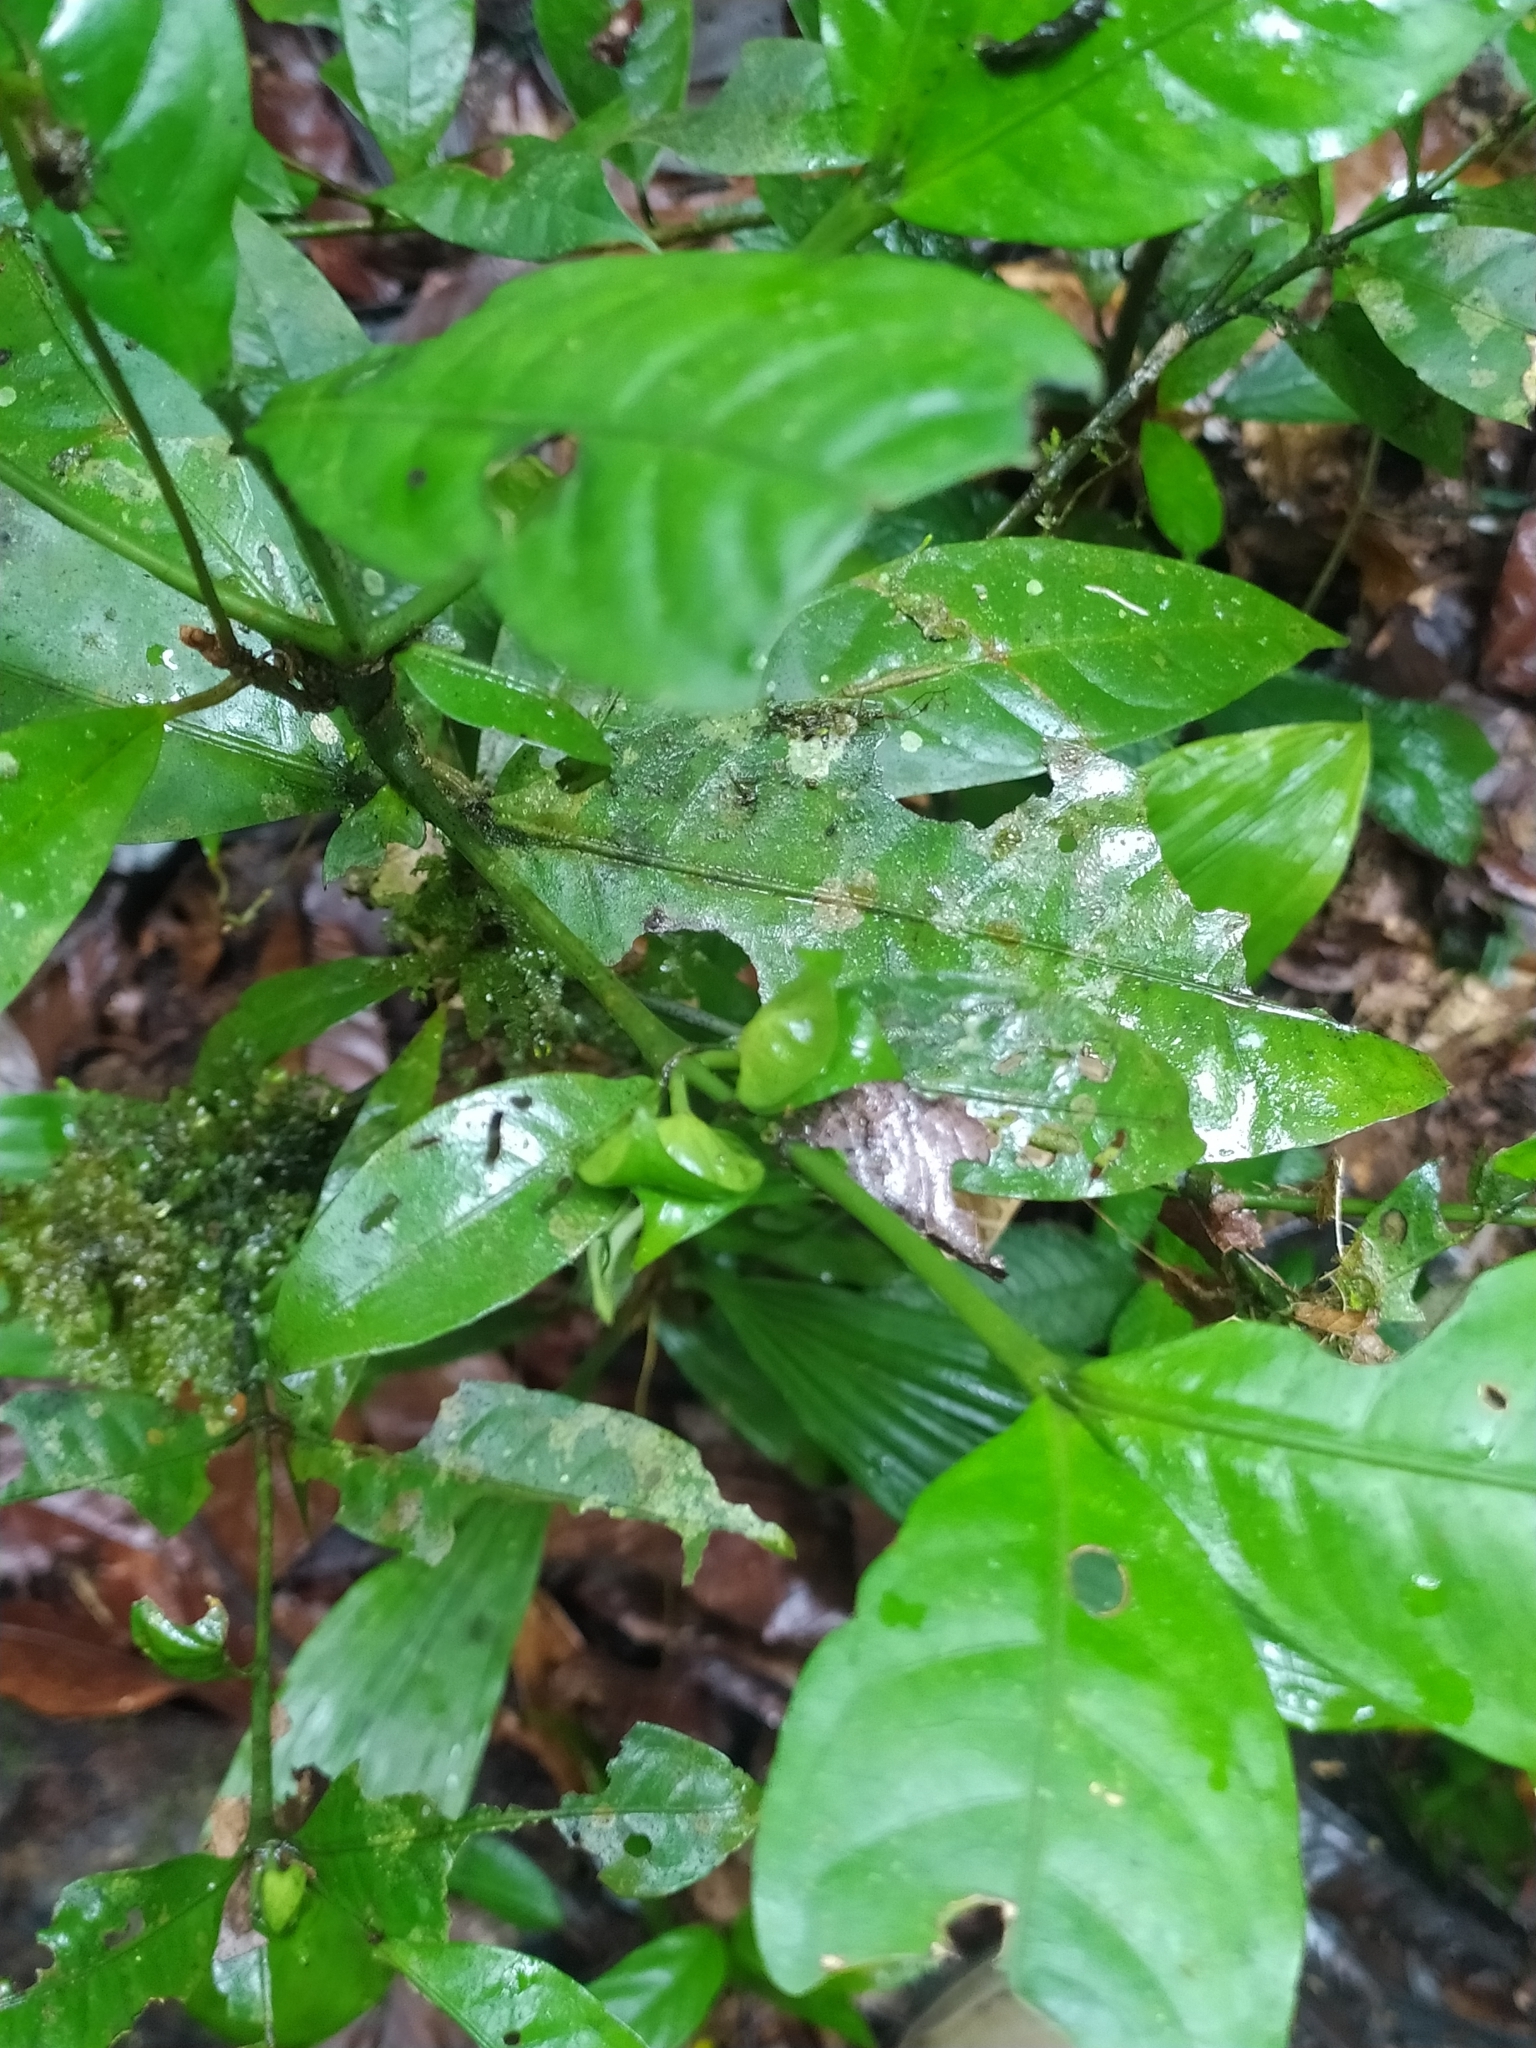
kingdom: Plantae
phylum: Tracheophyta
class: Magnoliopsida
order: Gentianales
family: Rubiaceae
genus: Faramea
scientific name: Faramea guianensis
